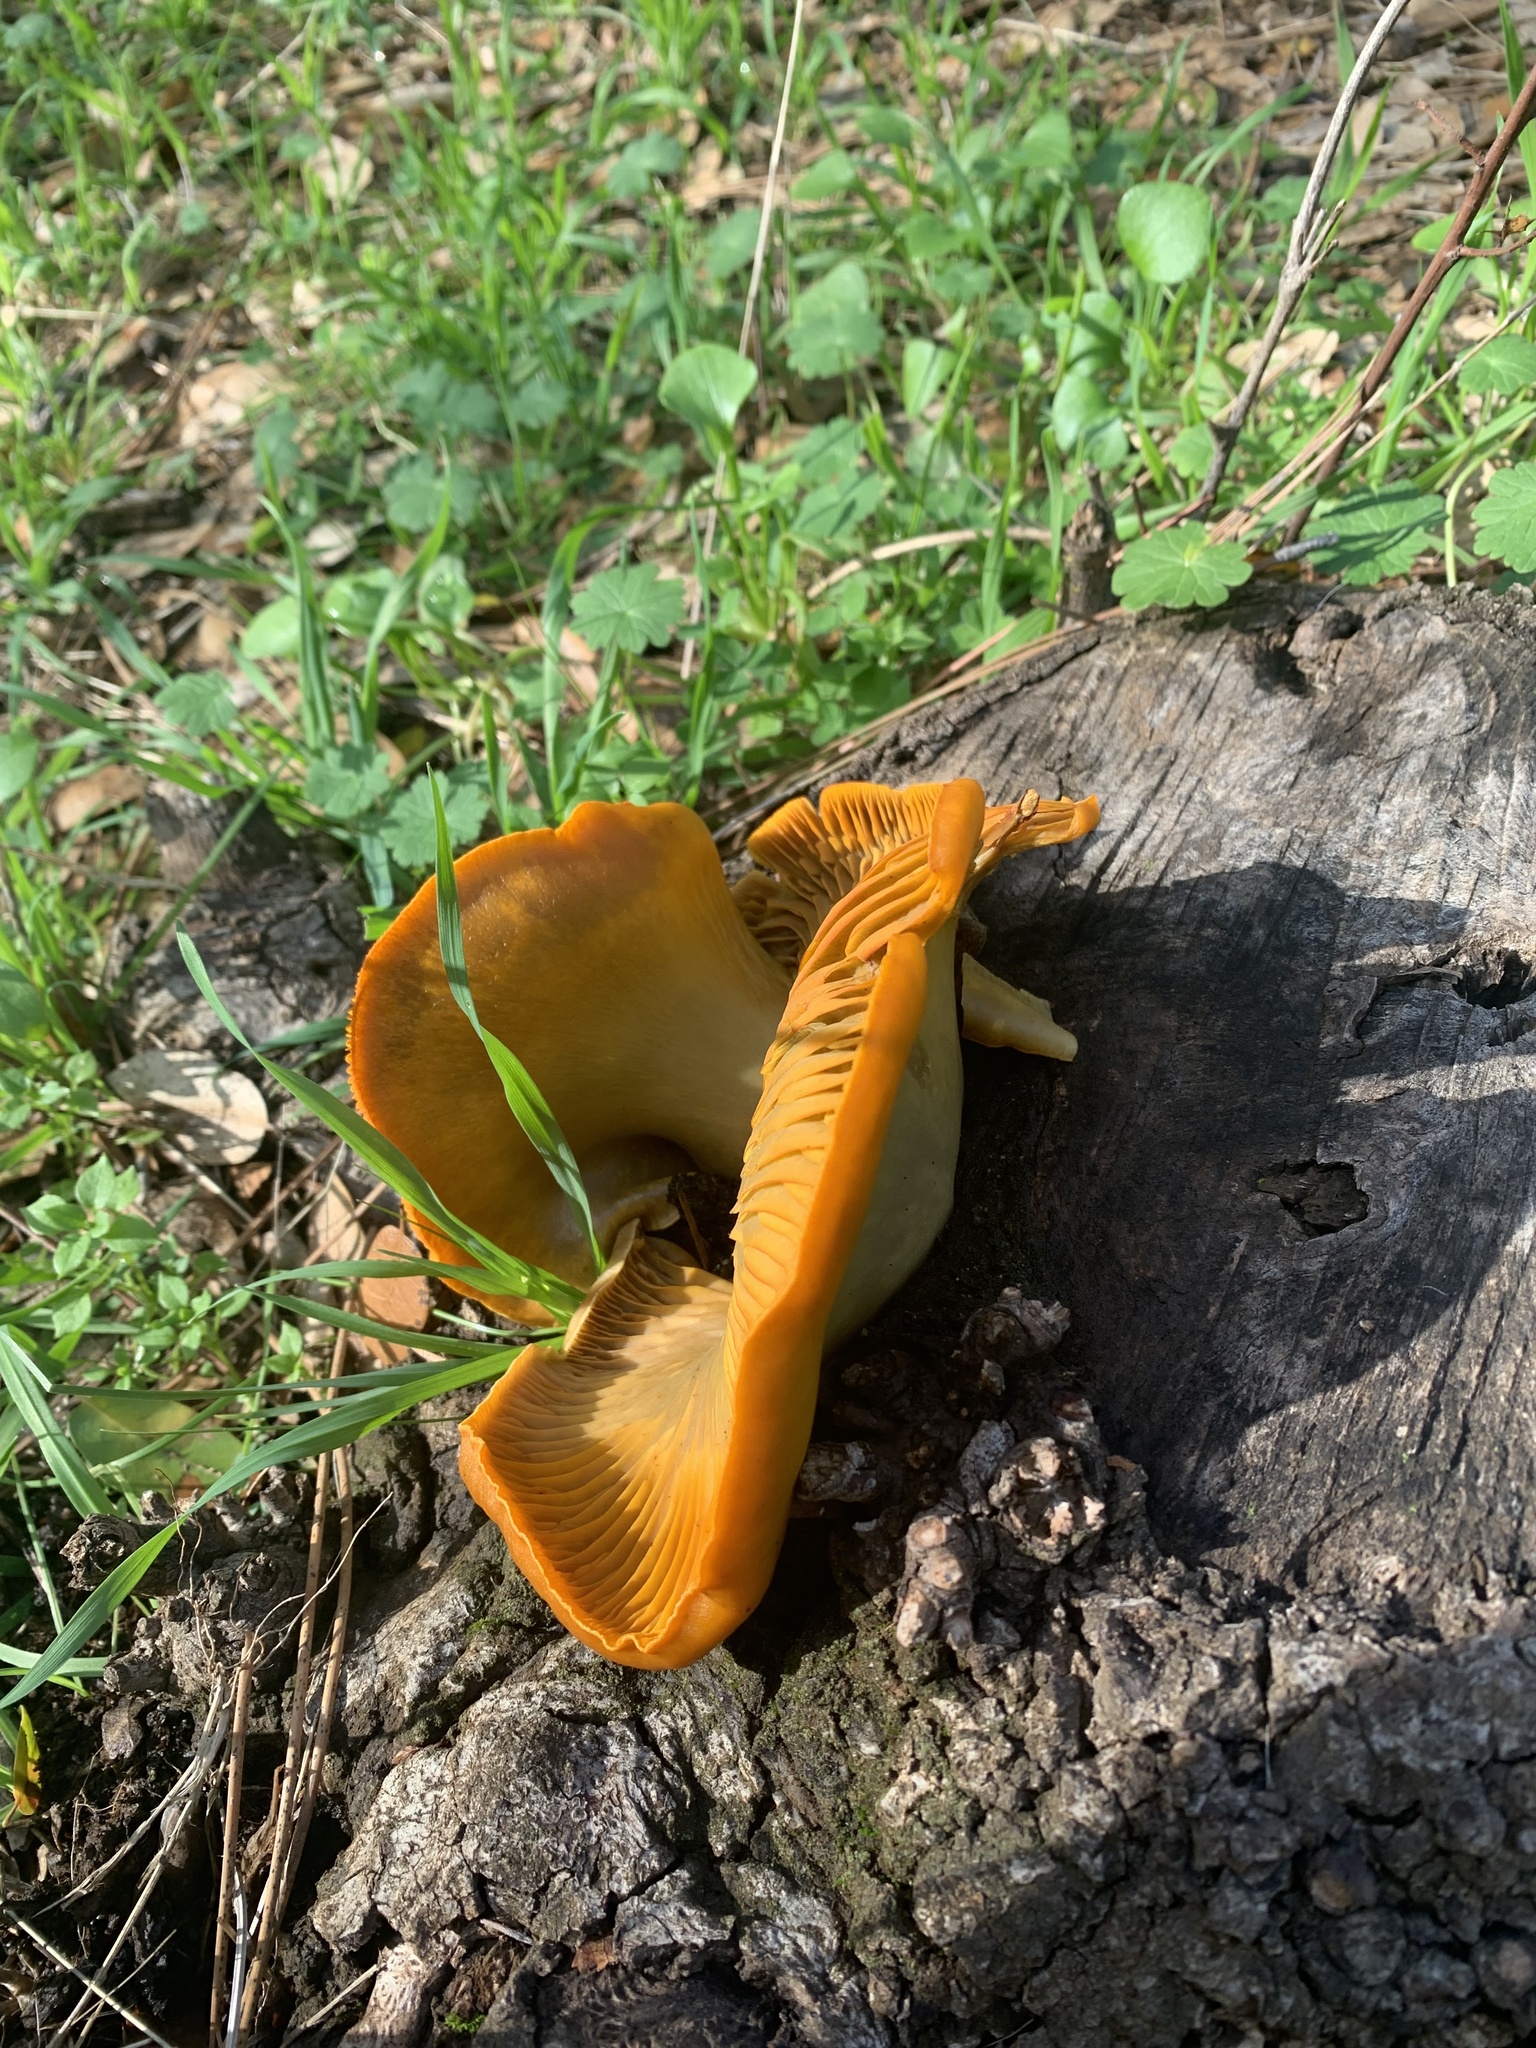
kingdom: Fungi
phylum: Basidiomycota
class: Agaricomycetes
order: Agaricales
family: Omphalotaceae
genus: Omphalotus
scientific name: Omphalotus olivascens
